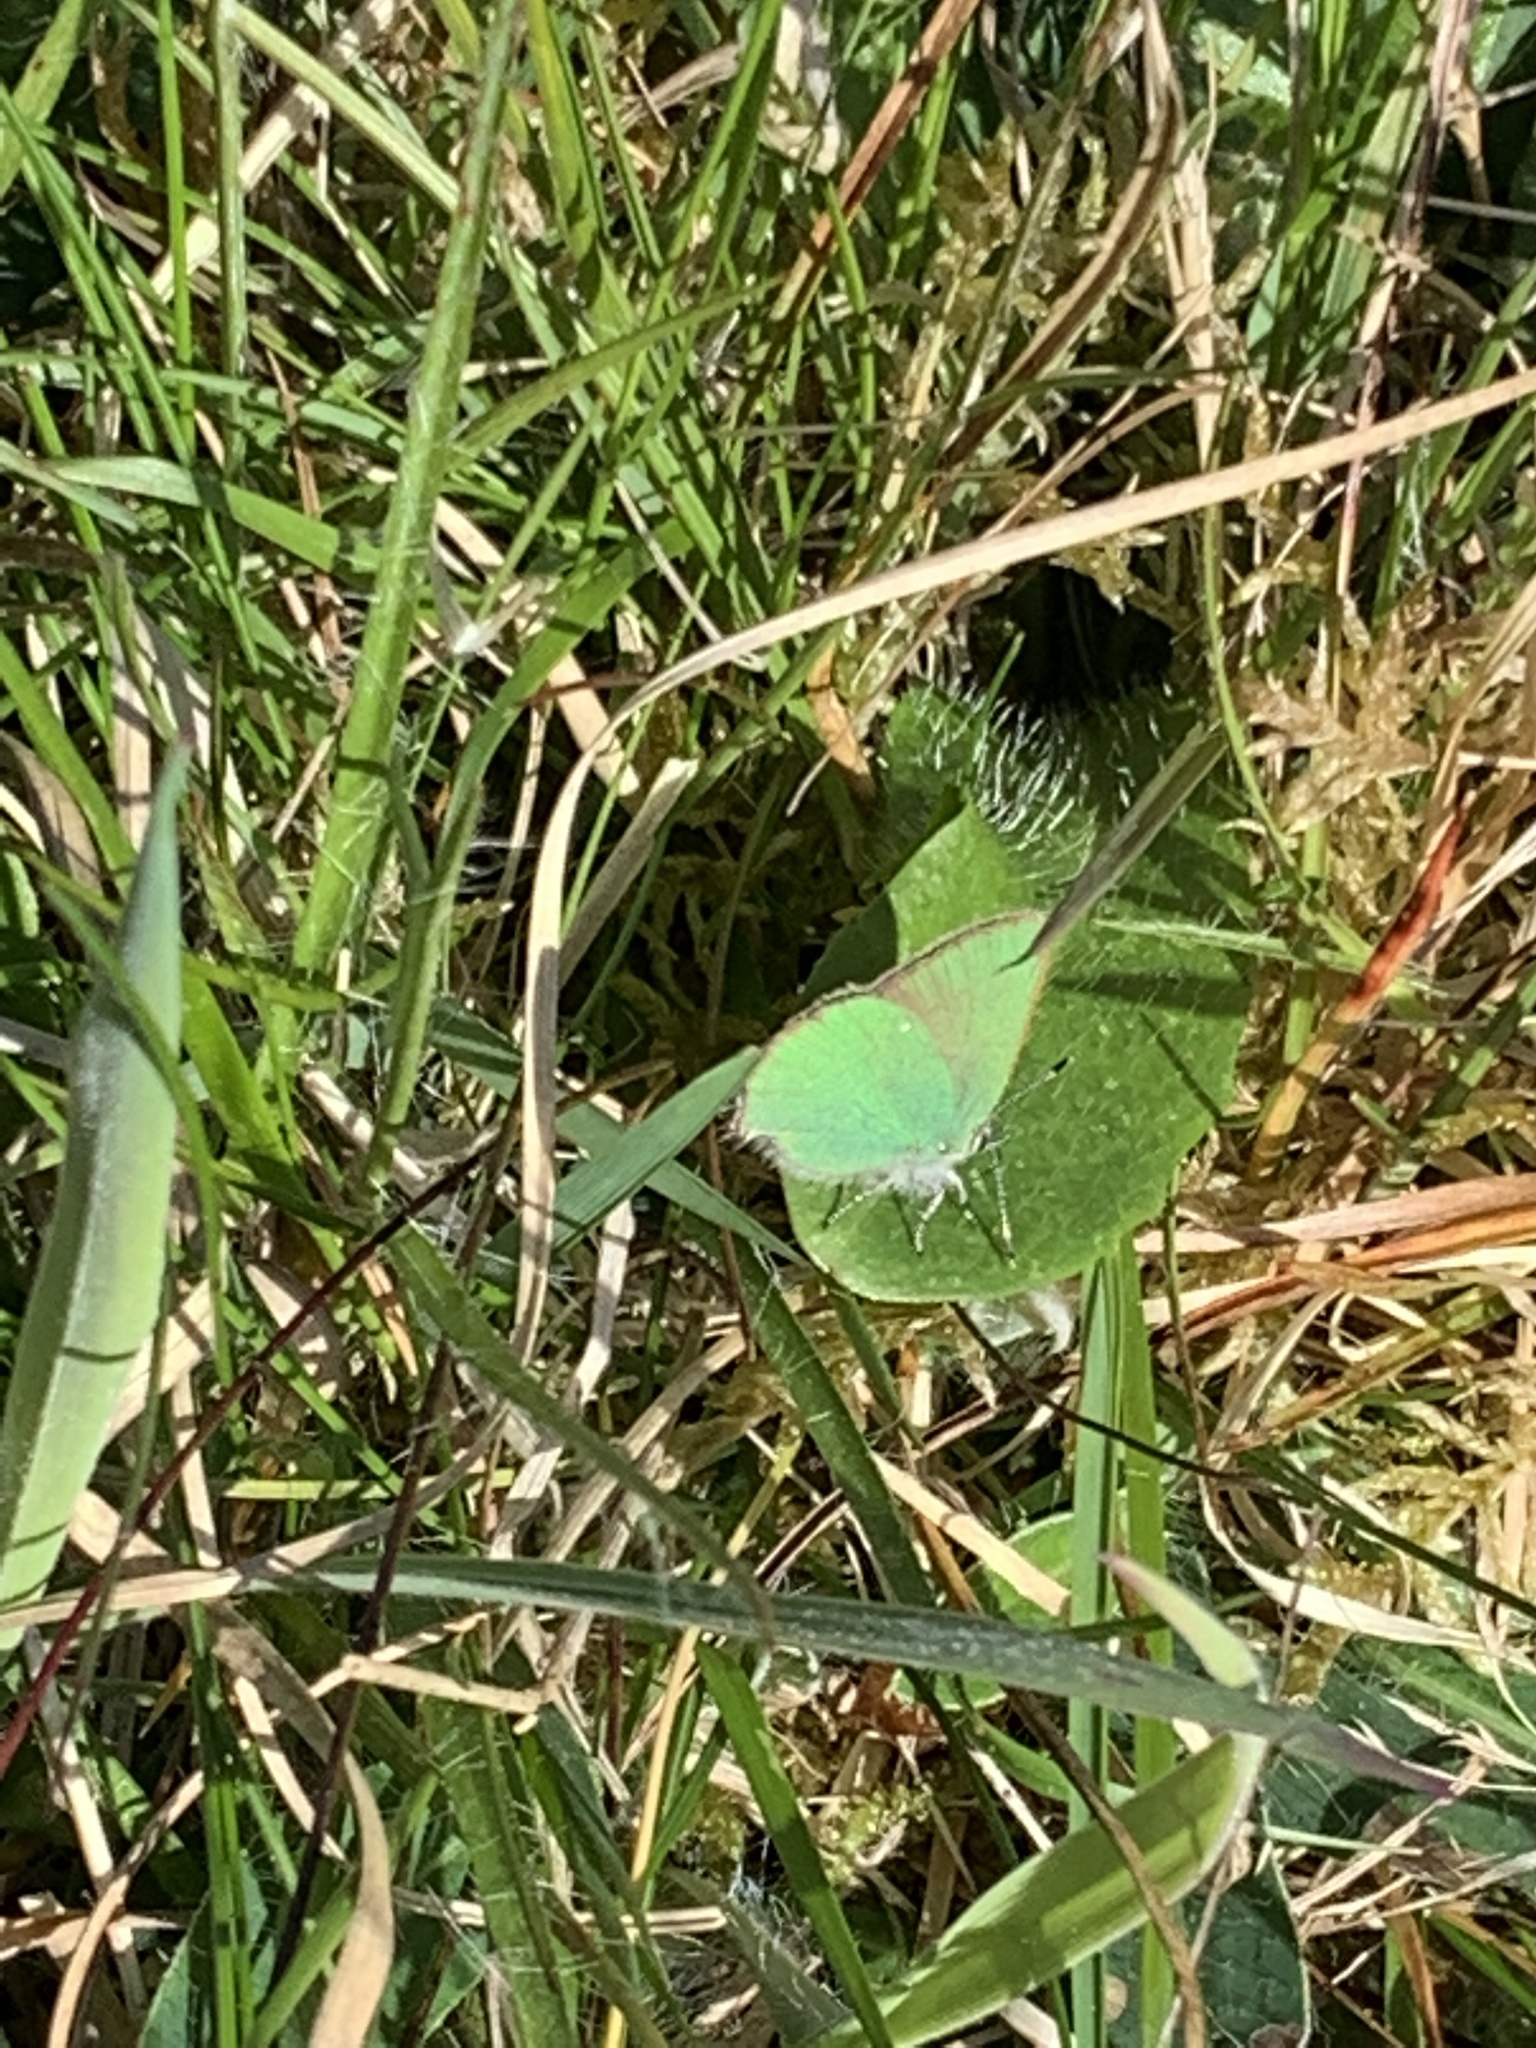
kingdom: Animalia
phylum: Arthropoda
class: Insecta
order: Lepidoptera
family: Lycaenidae
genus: Callophrys
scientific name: Callophrys rubi
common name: Green hairstreak
